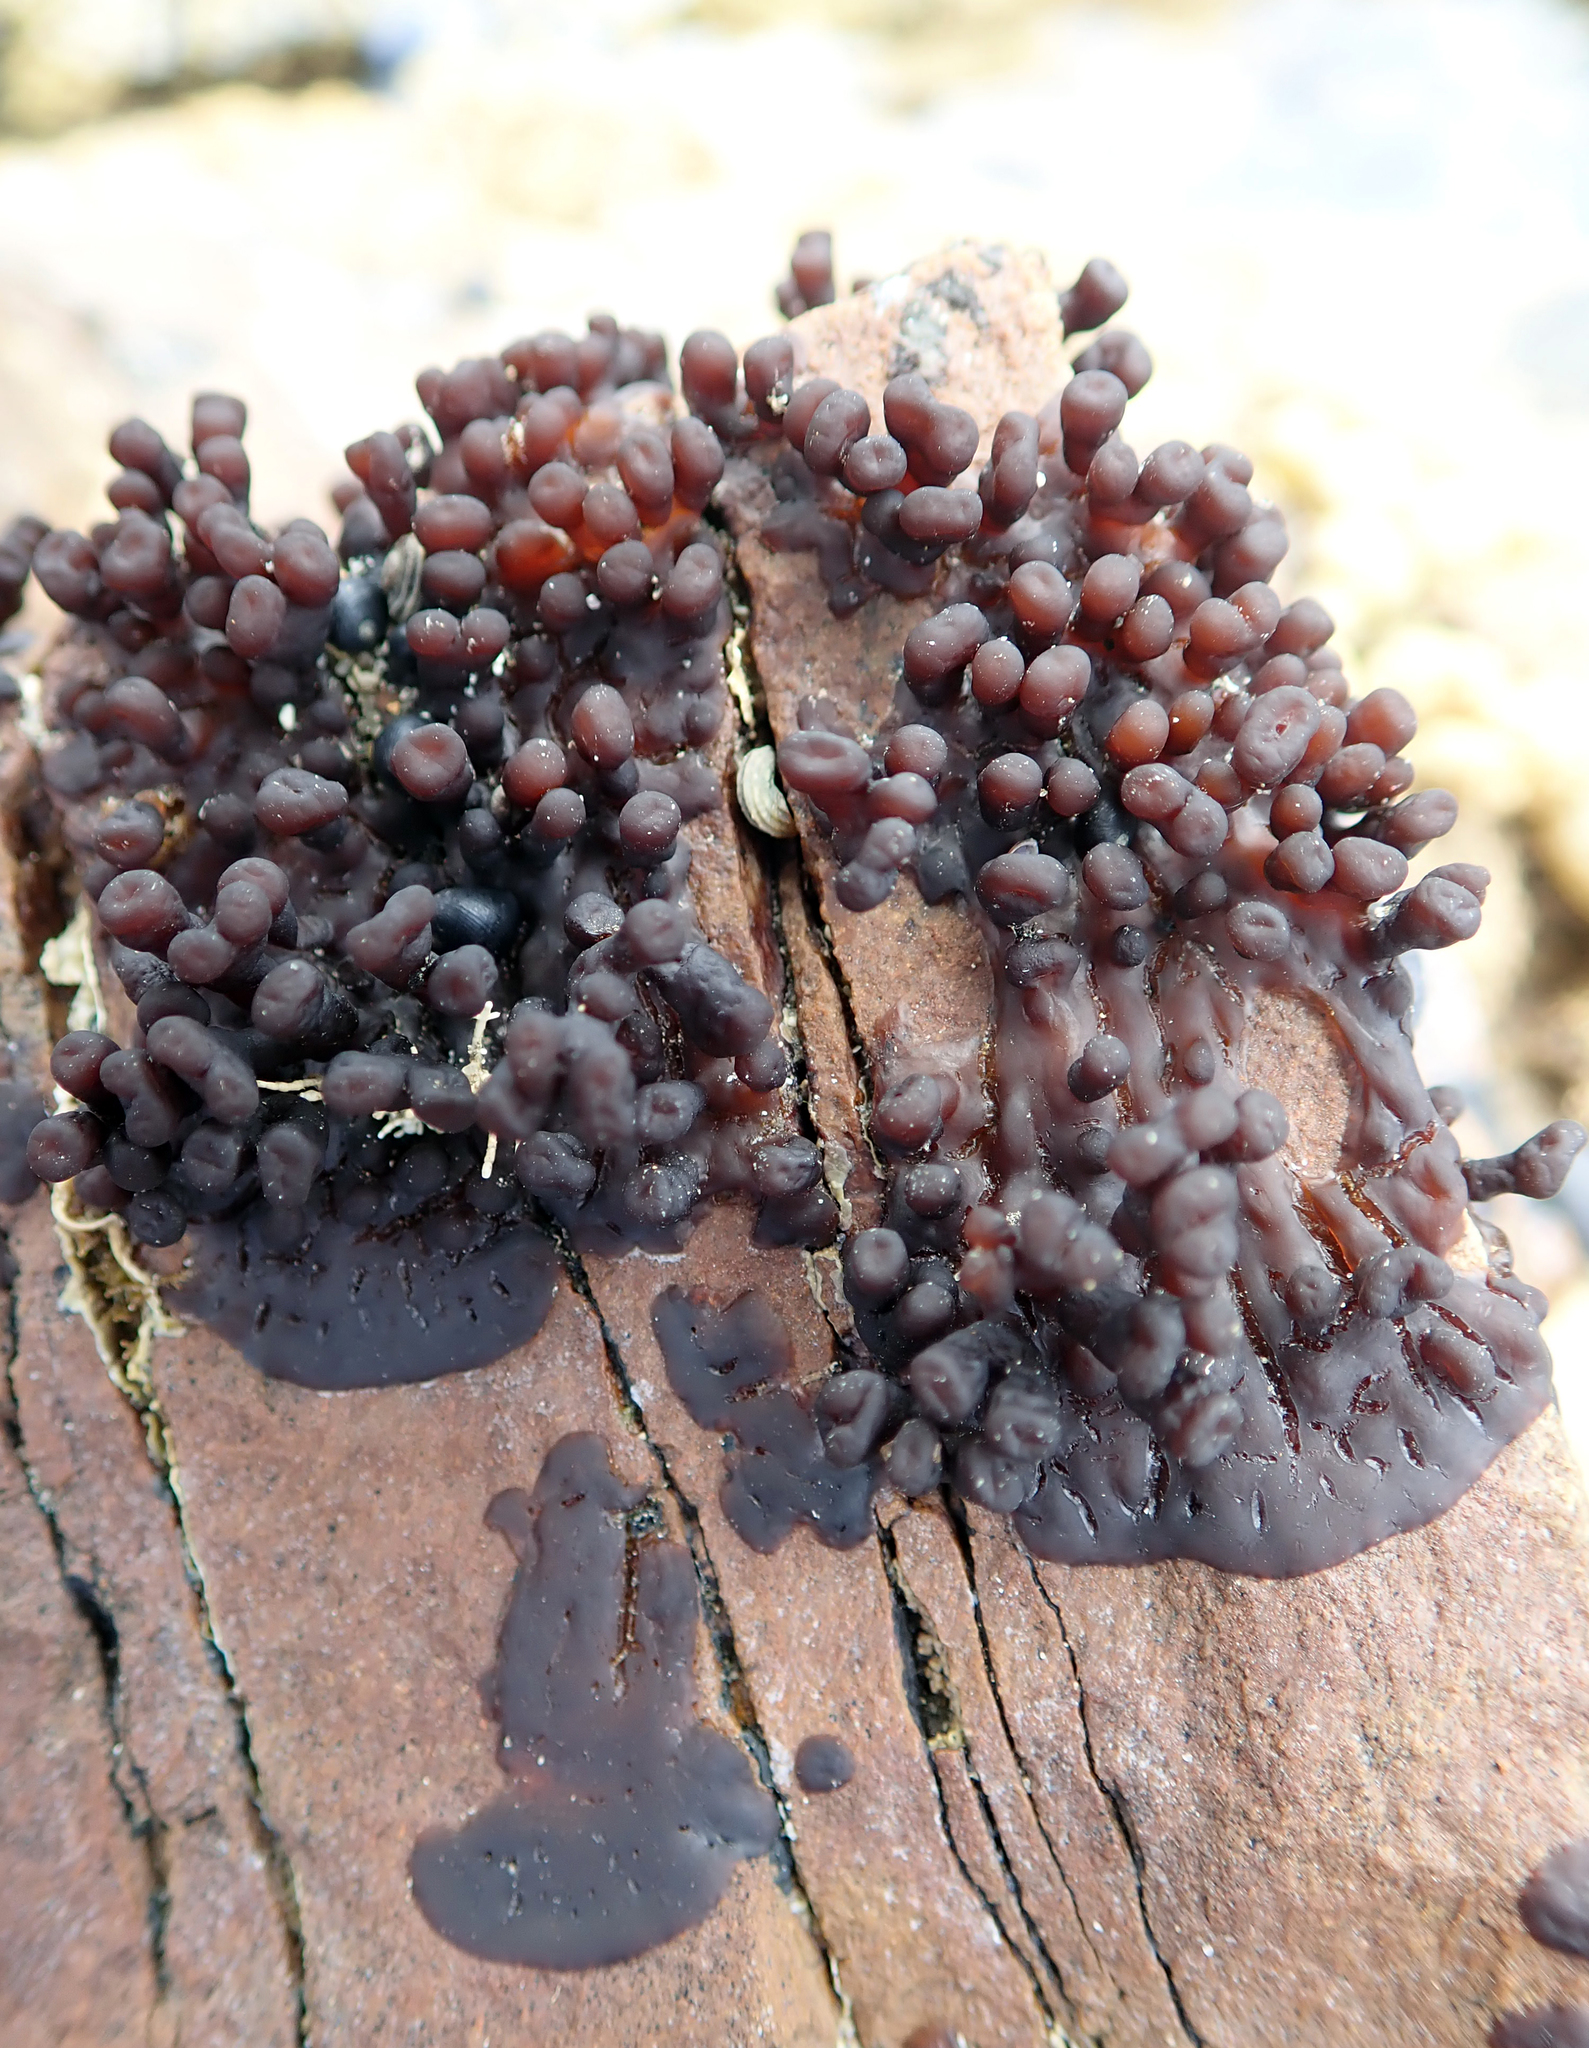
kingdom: Plantae
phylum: Rhodophyta
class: Florideophyceae
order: Hildenbrandiales
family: Hildenbrandiaceae
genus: Apophlaea
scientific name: Apophlaea sinclairii
